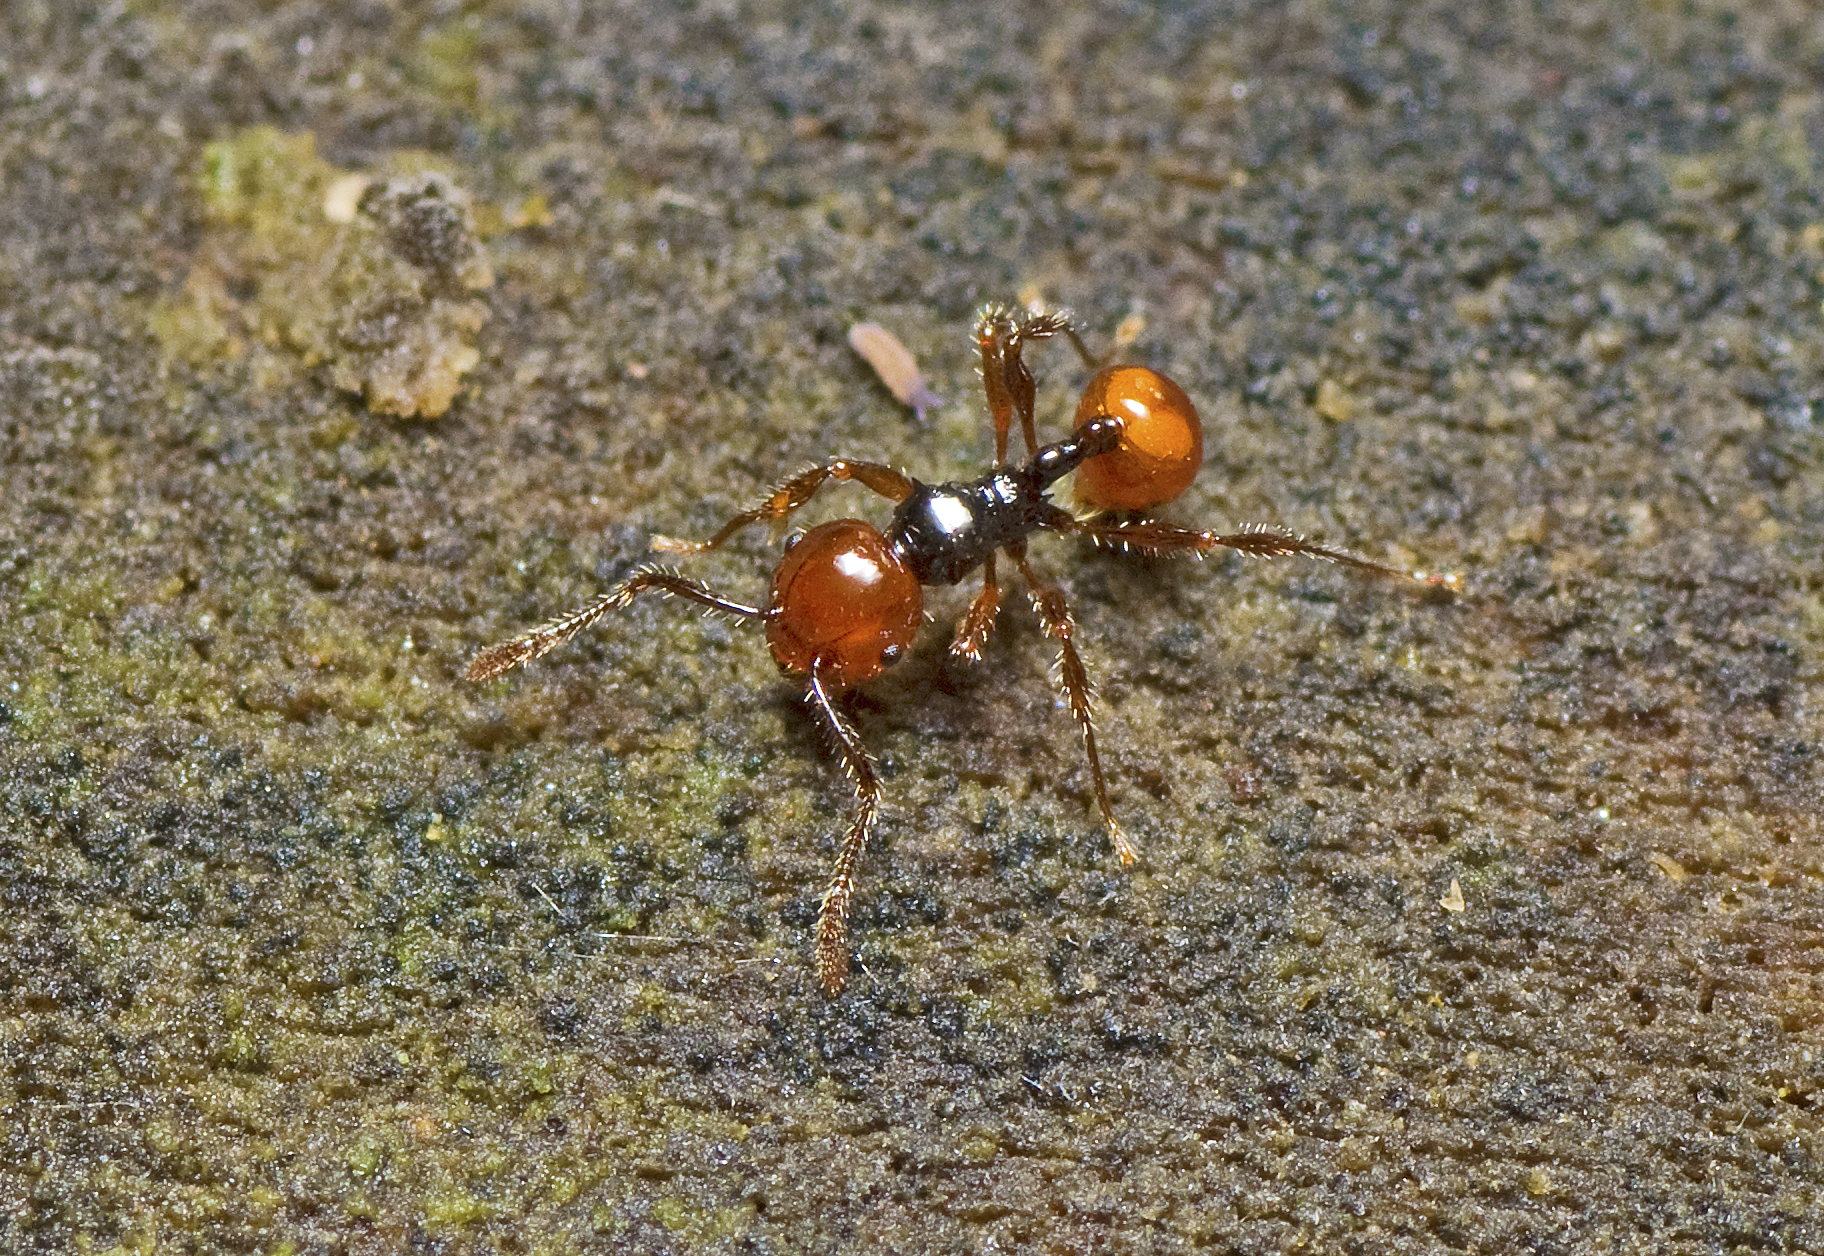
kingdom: Animalia
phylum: Arthropoda
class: Insecta
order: Hymenoptera
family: Formicidae
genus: Pristomyrmex
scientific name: Pristomyrmex quadridentatus
